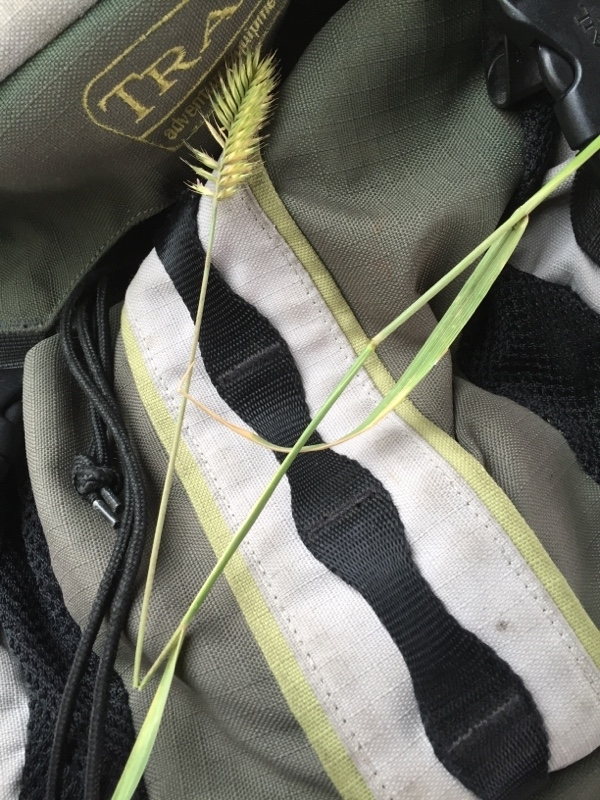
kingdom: Plantae
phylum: Tracheophyta
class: Liliopsida
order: Poales
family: Poaceae
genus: Agropyron
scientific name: Agropyron cristatum
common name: Crested wheatgrass
